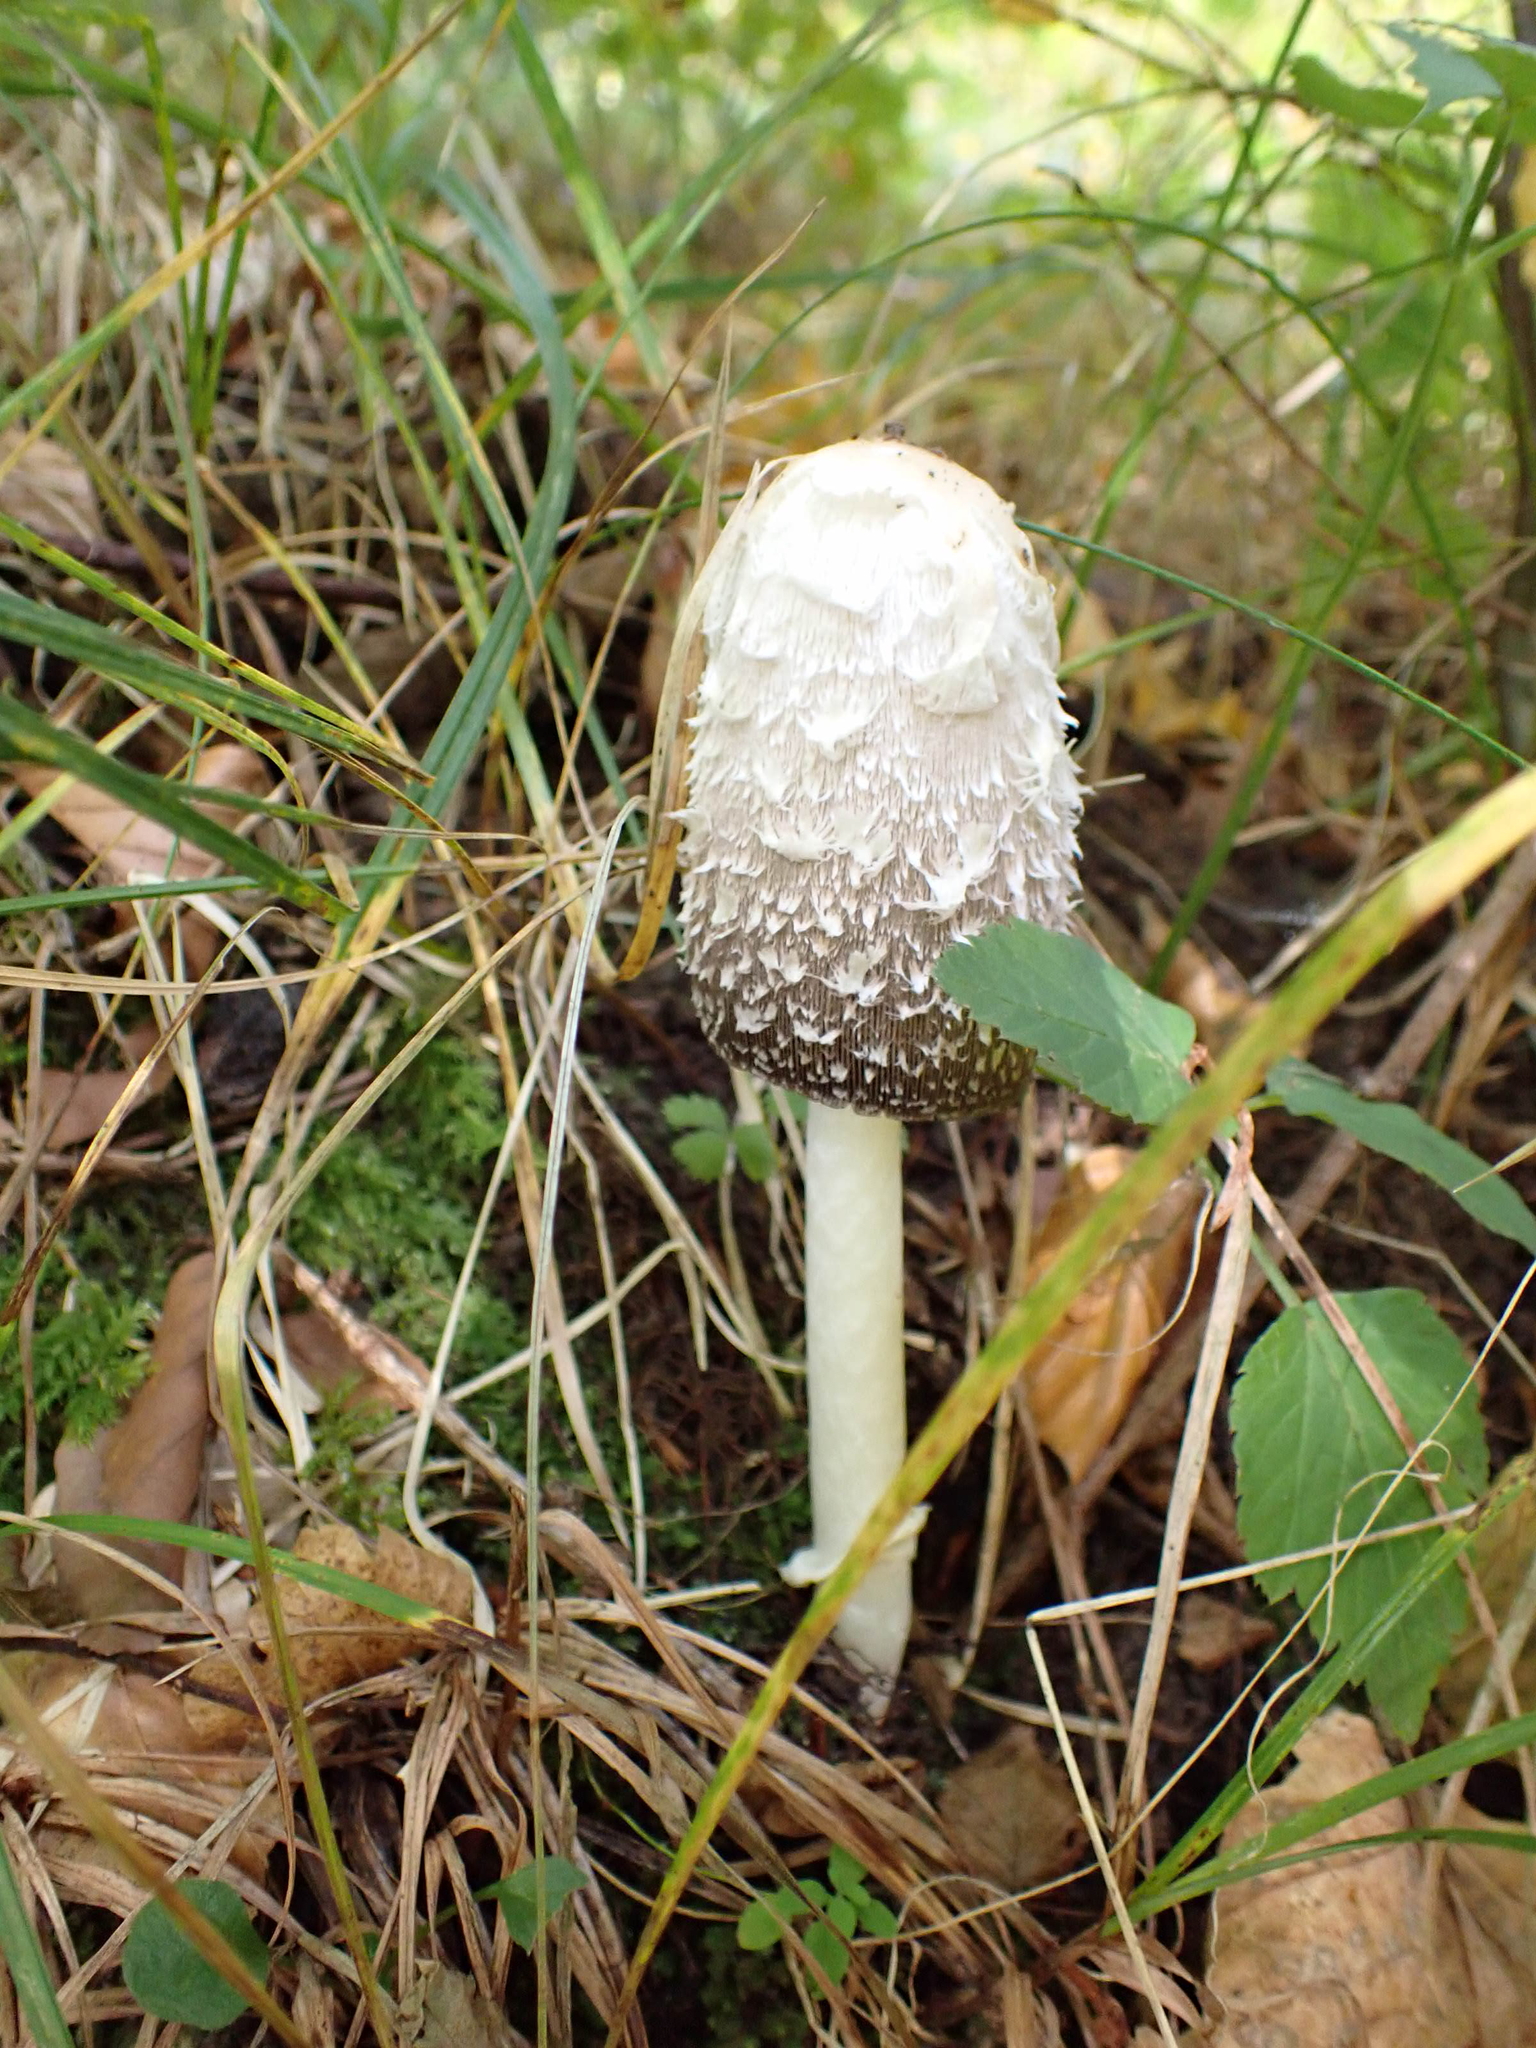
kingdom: Fungi
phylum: Basidiomycota
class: Agaricomycetes
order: Agaricales
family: Agaricaceae
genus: Coprinus
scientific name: Coprinus comatus
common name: Lawyer's wig
